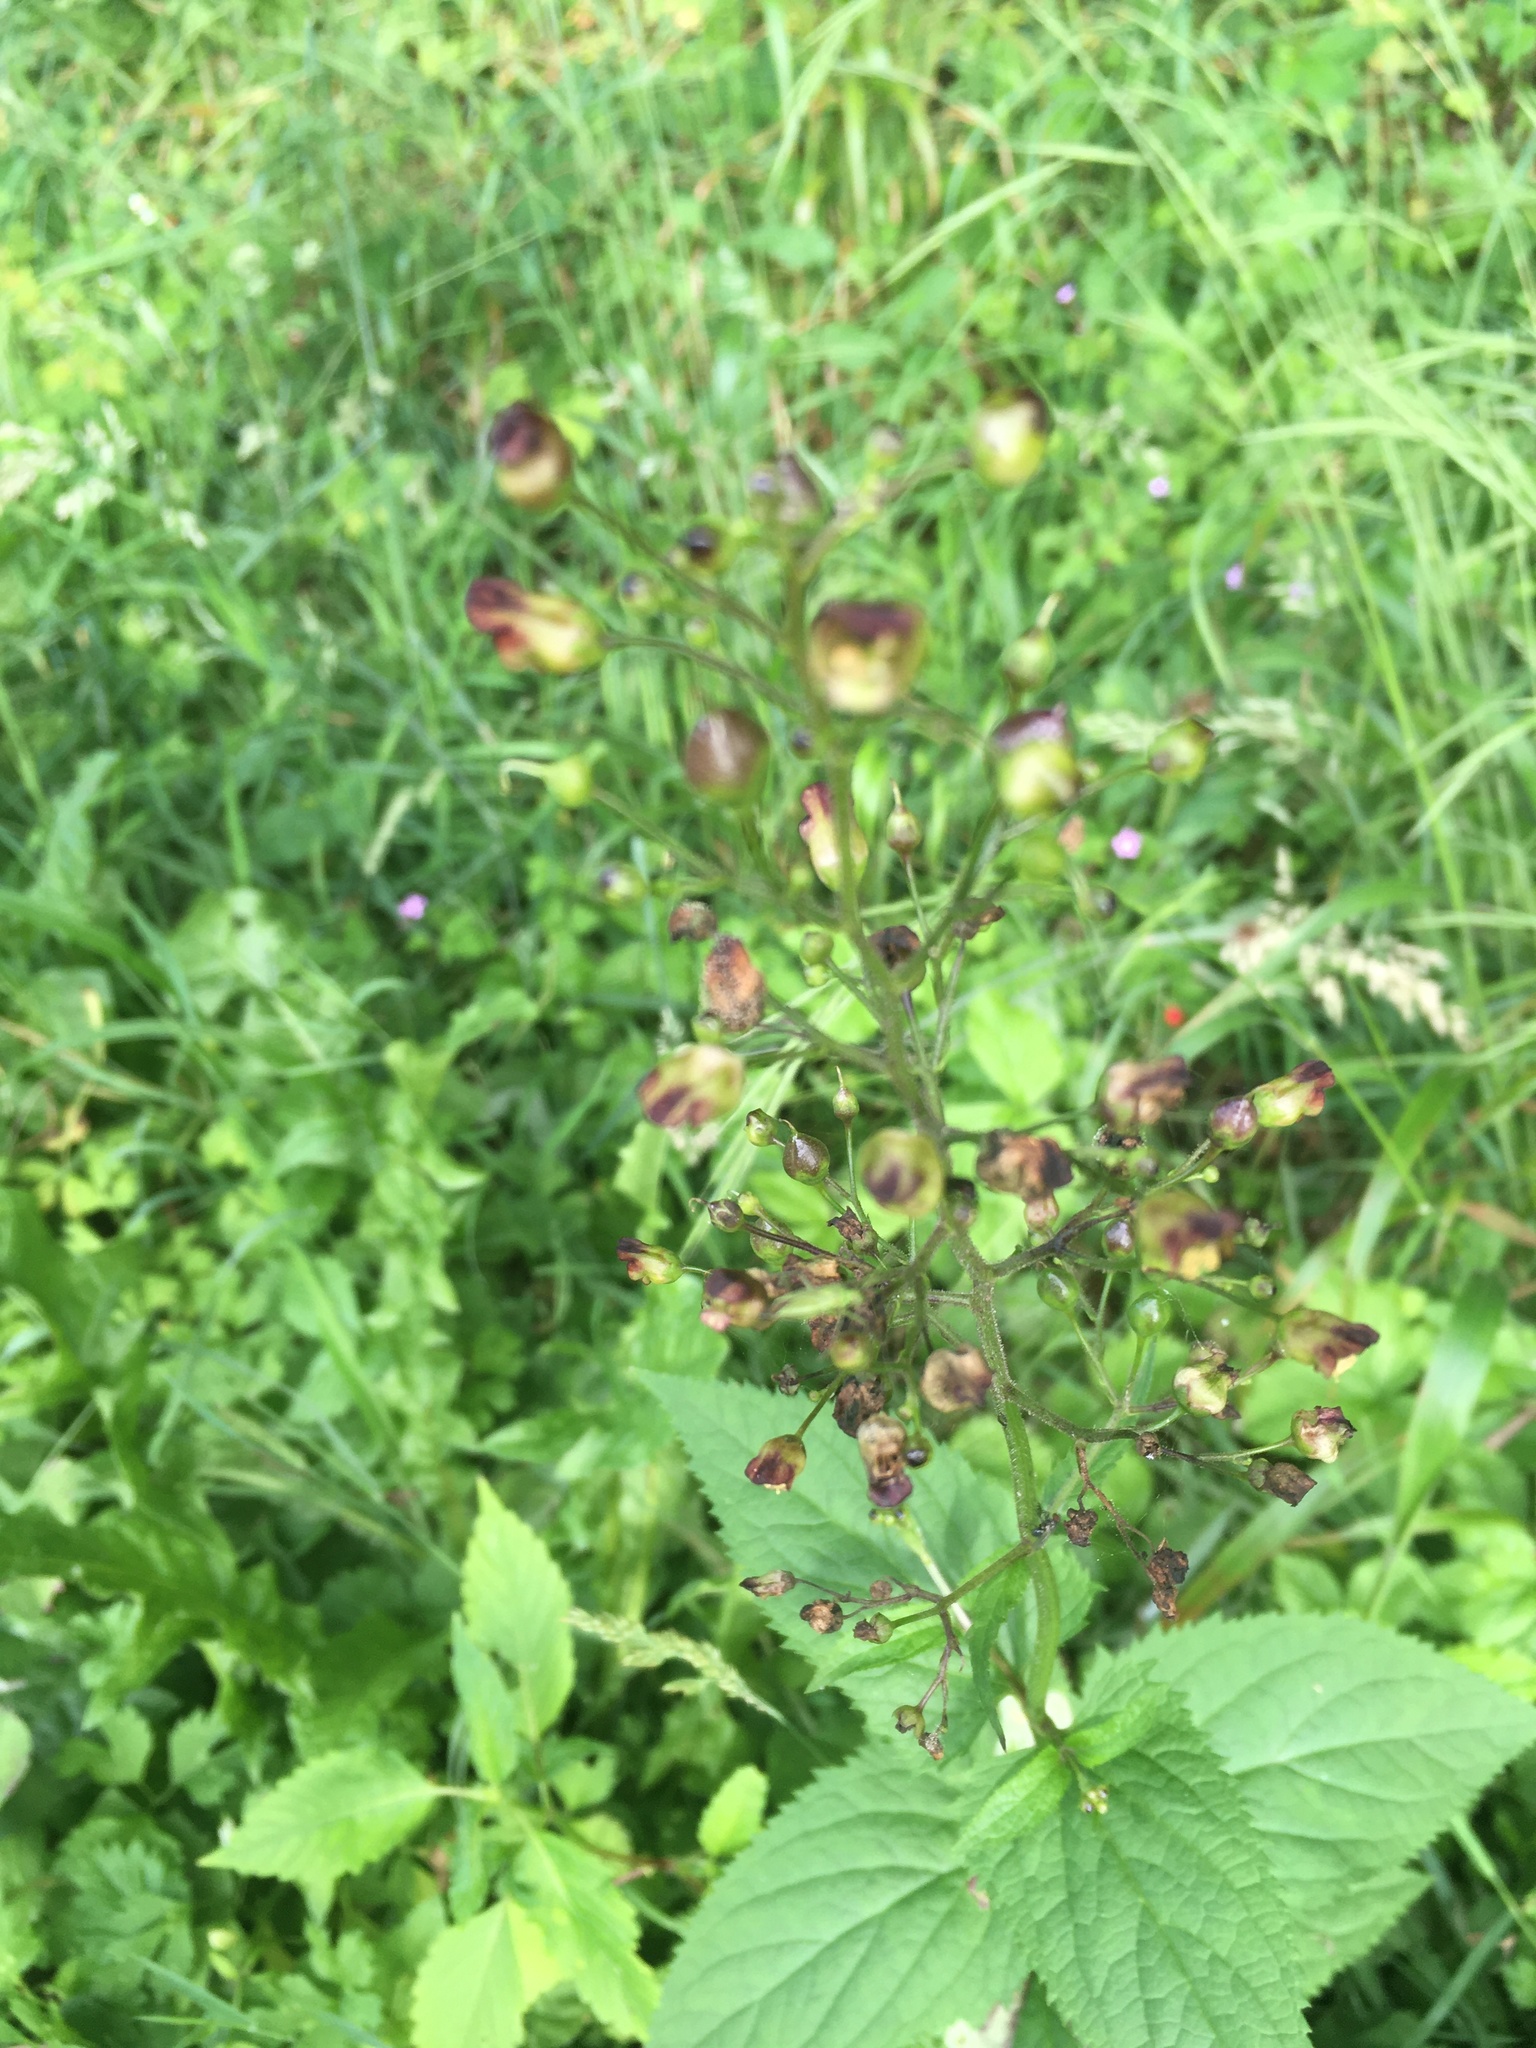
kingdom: Plantae
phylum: Tracheophyta
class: Magnoliopsida
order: Lamiales
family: Scrophulariaceae
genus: Scrophularia
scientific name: Scrophularia nodosa
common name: Common figwort
